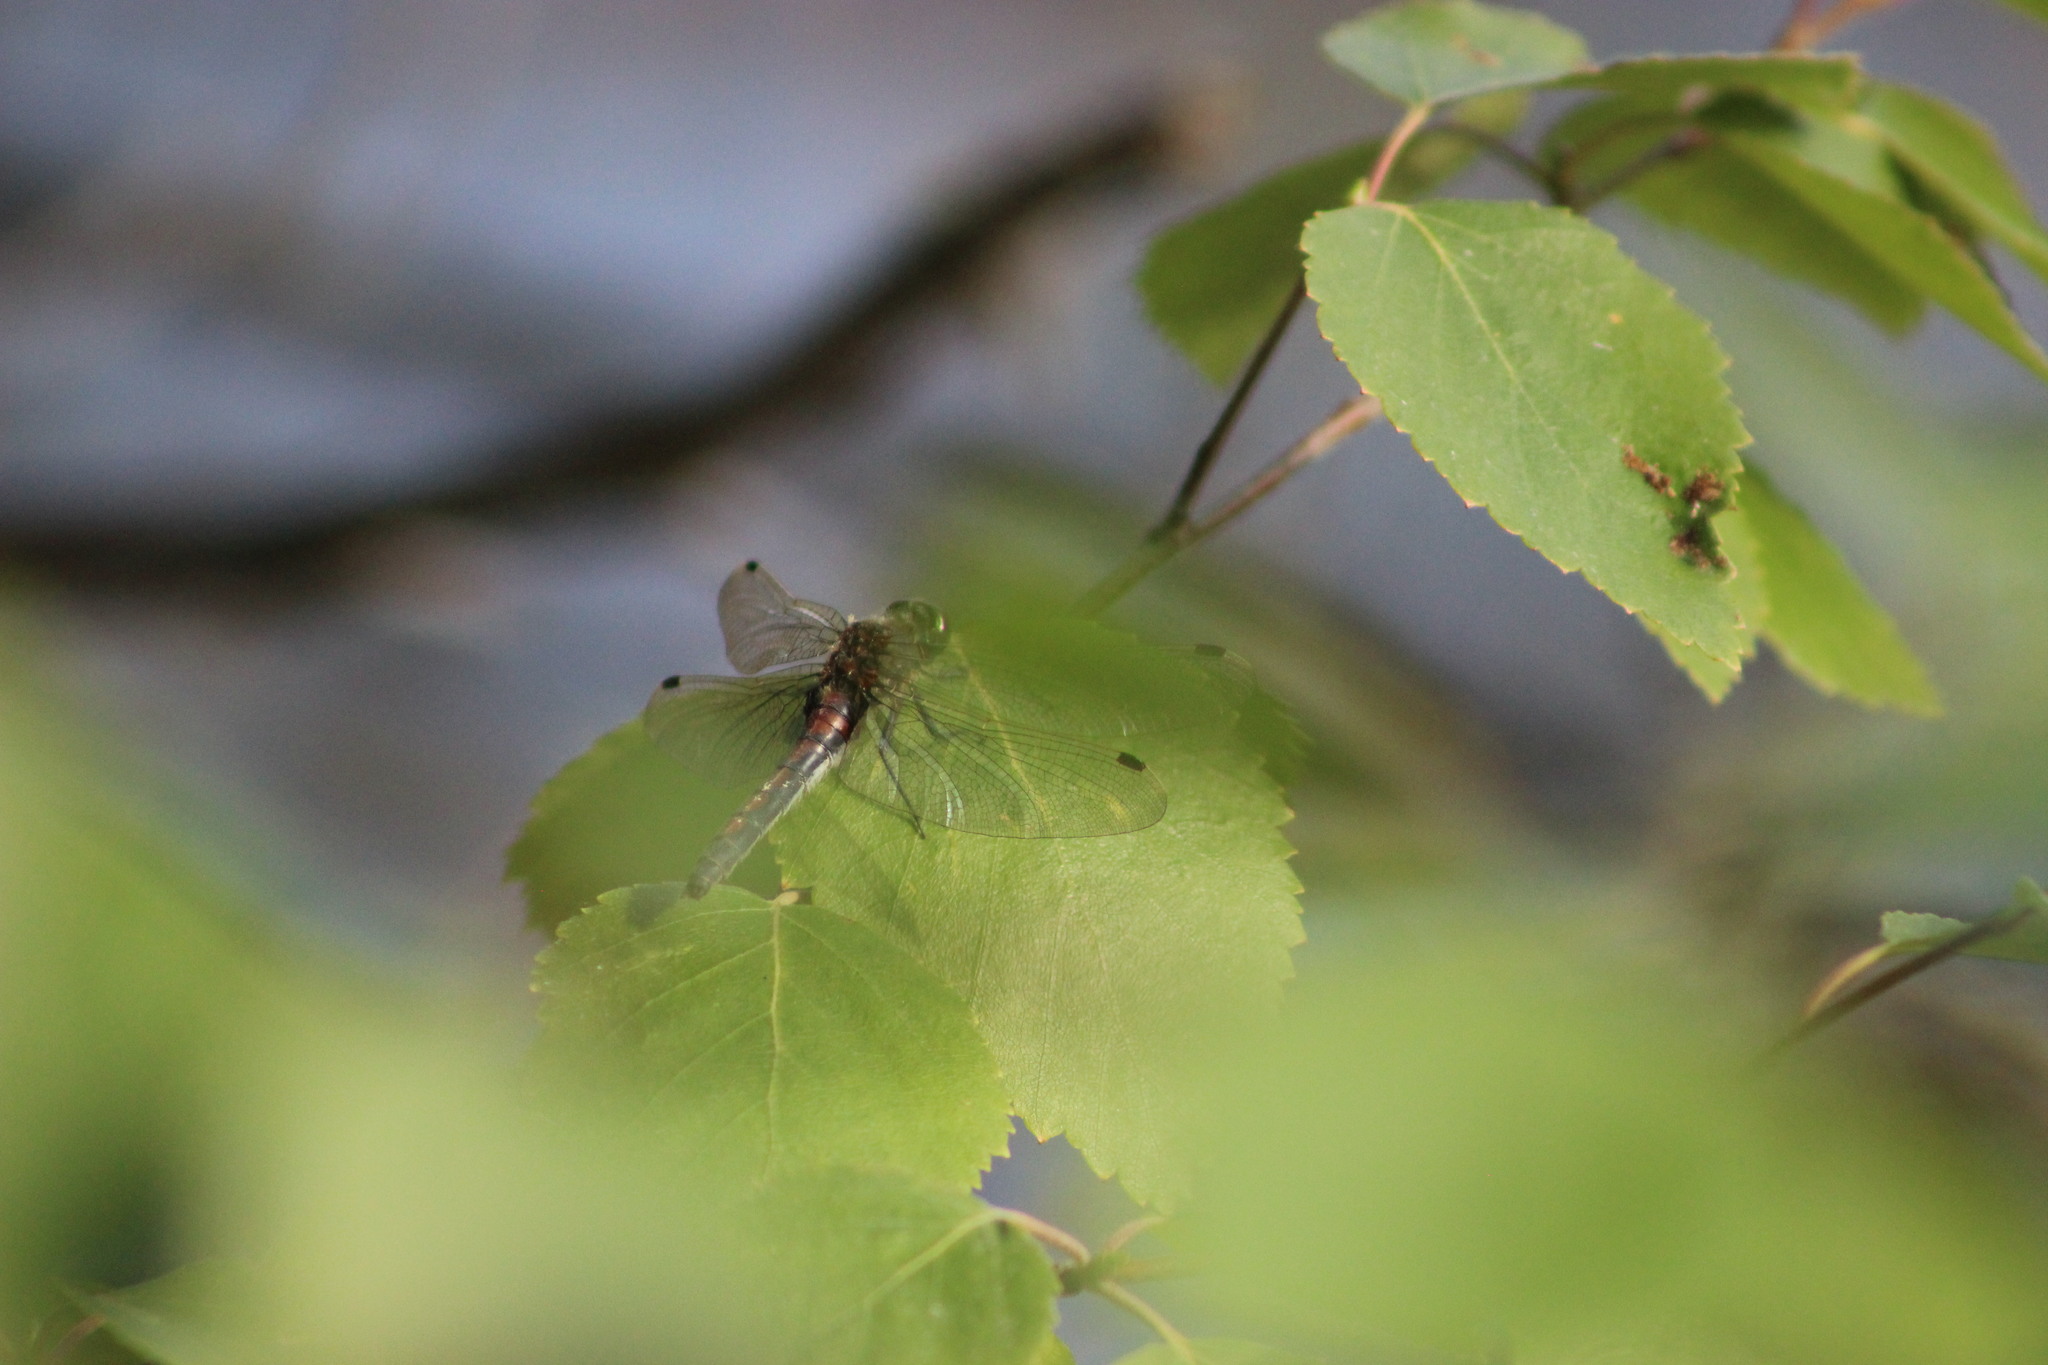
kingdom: Animalia
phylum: Arthropoda
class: Insecta
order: Odonata
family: Libellulidae
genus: Leucorrhinia
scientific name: Leucorrhinia rubicunda
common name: Ruby whiteface
